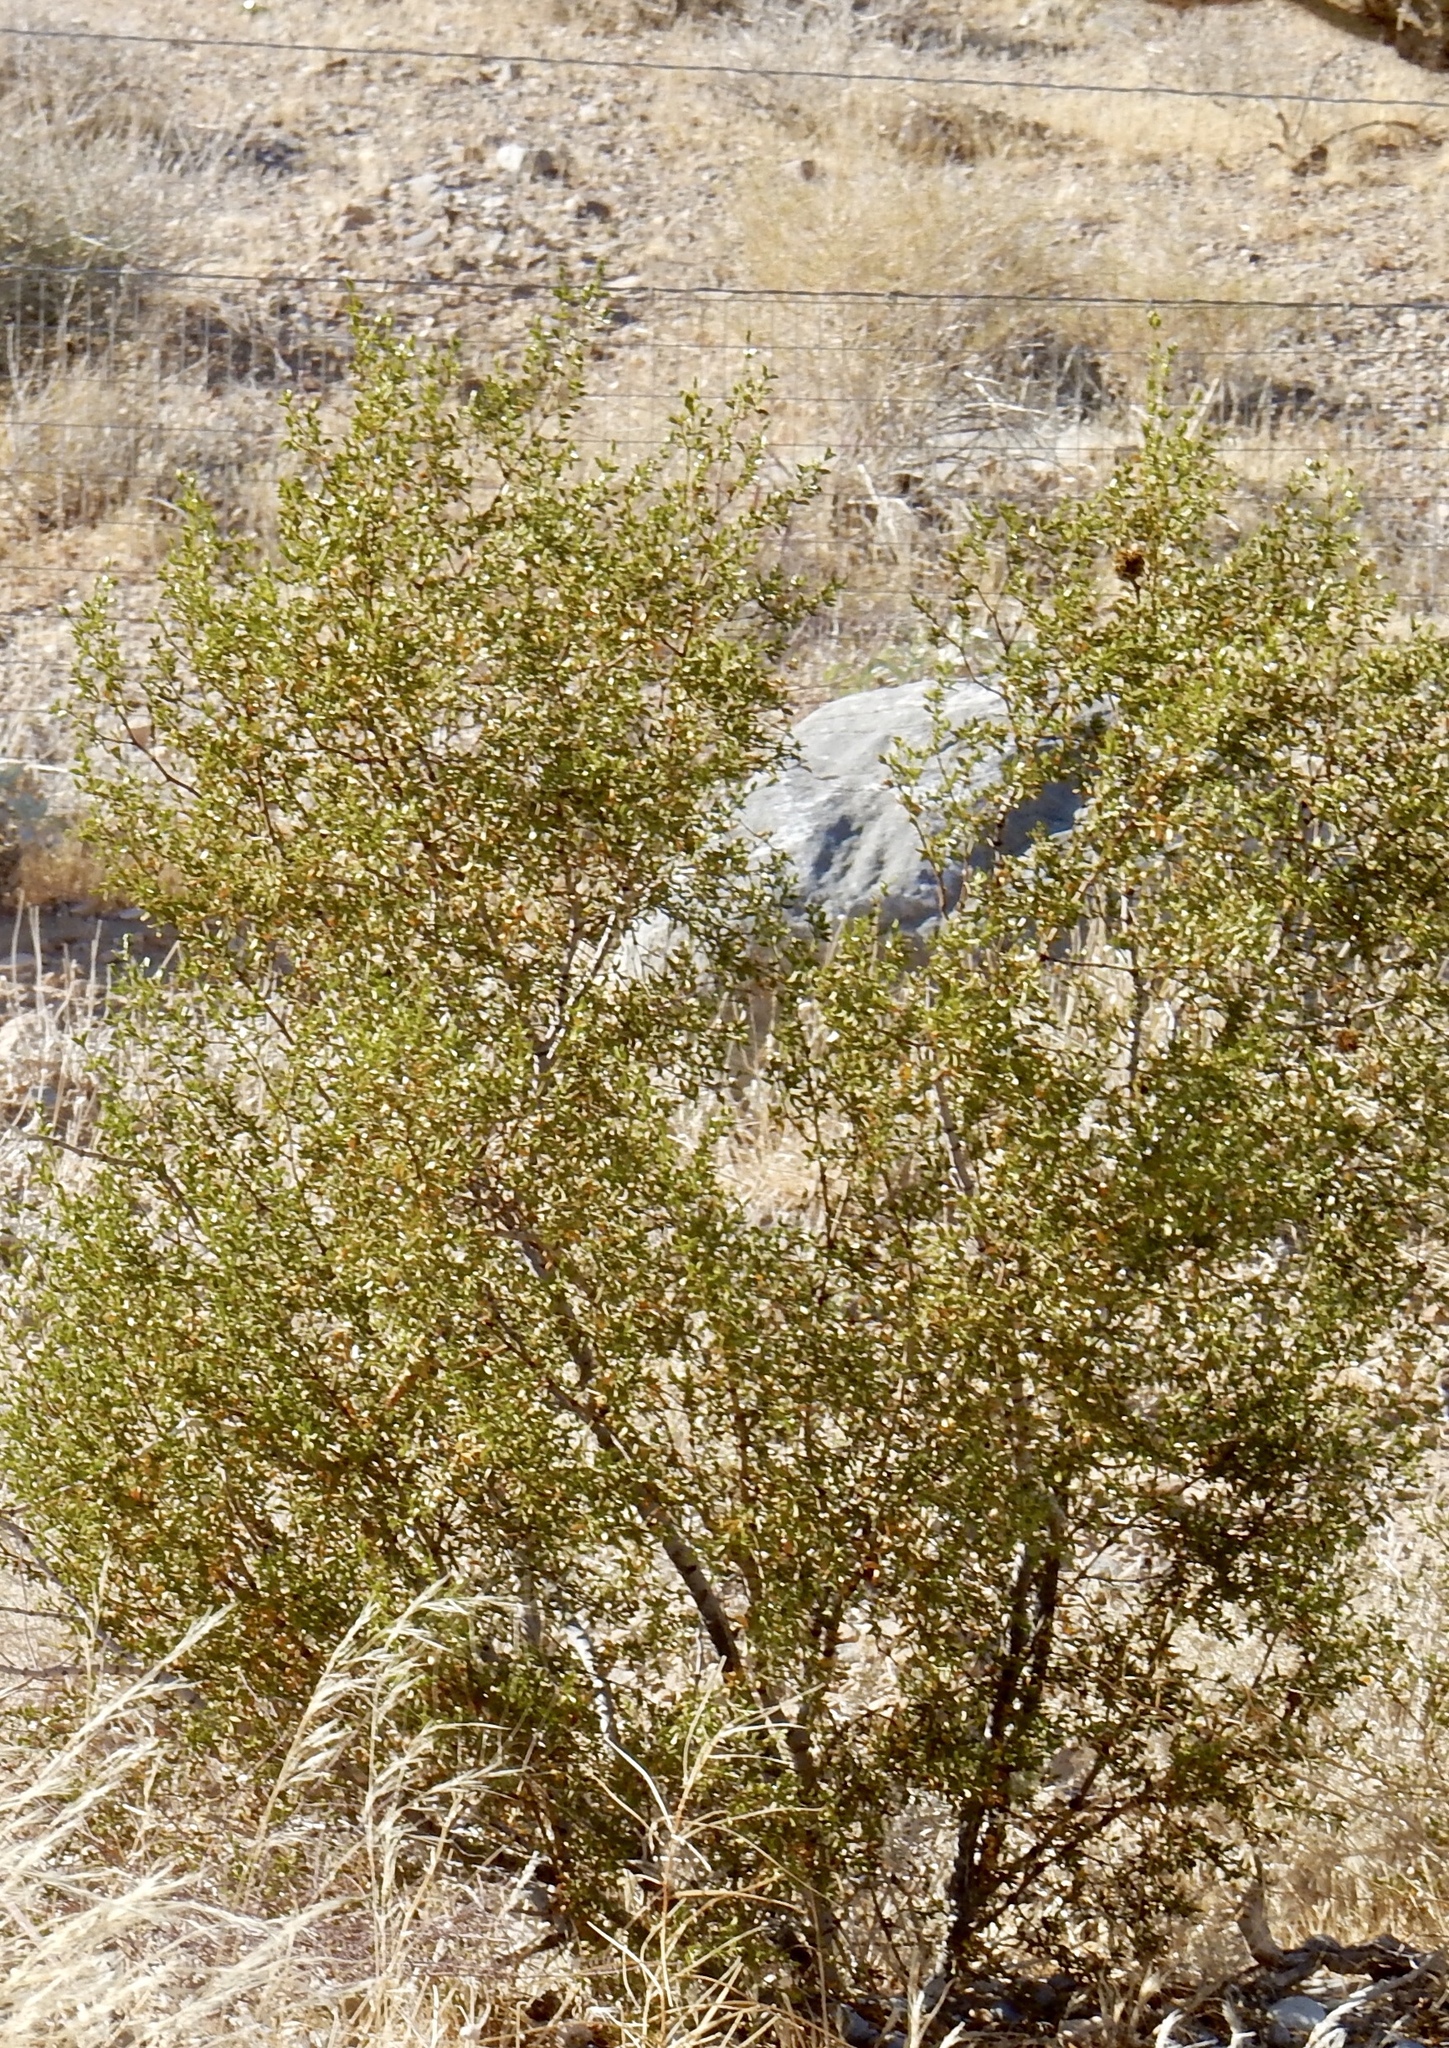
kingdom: Plantae
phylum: Tracheophyta
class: Magnoliopsida
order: Zygophyllales
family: Zygophyllaceae
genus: Larrea
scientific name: Larrea tridentata
